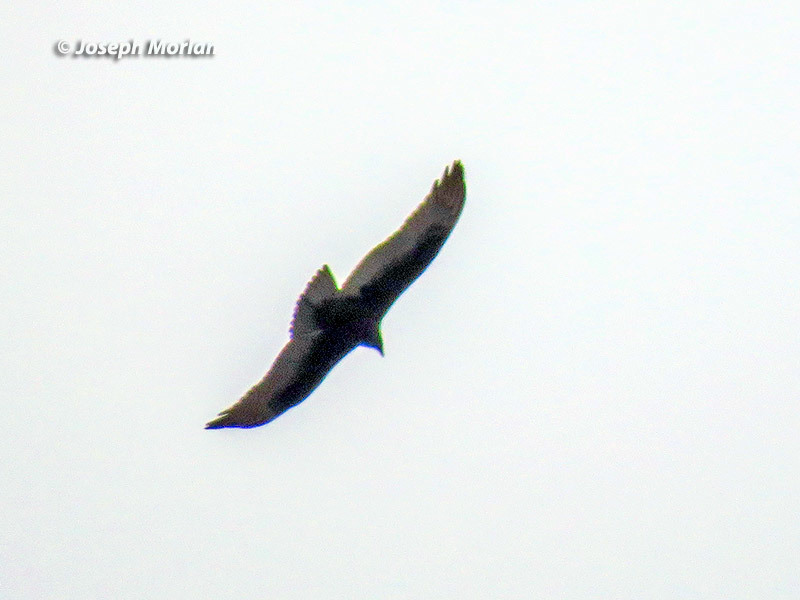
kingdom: Animalia
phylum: Chordata
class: Aves
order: Accipitriformes
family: Cathartidae
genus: Cathartes
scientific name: Cathartes aura
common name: Turkey vulture
